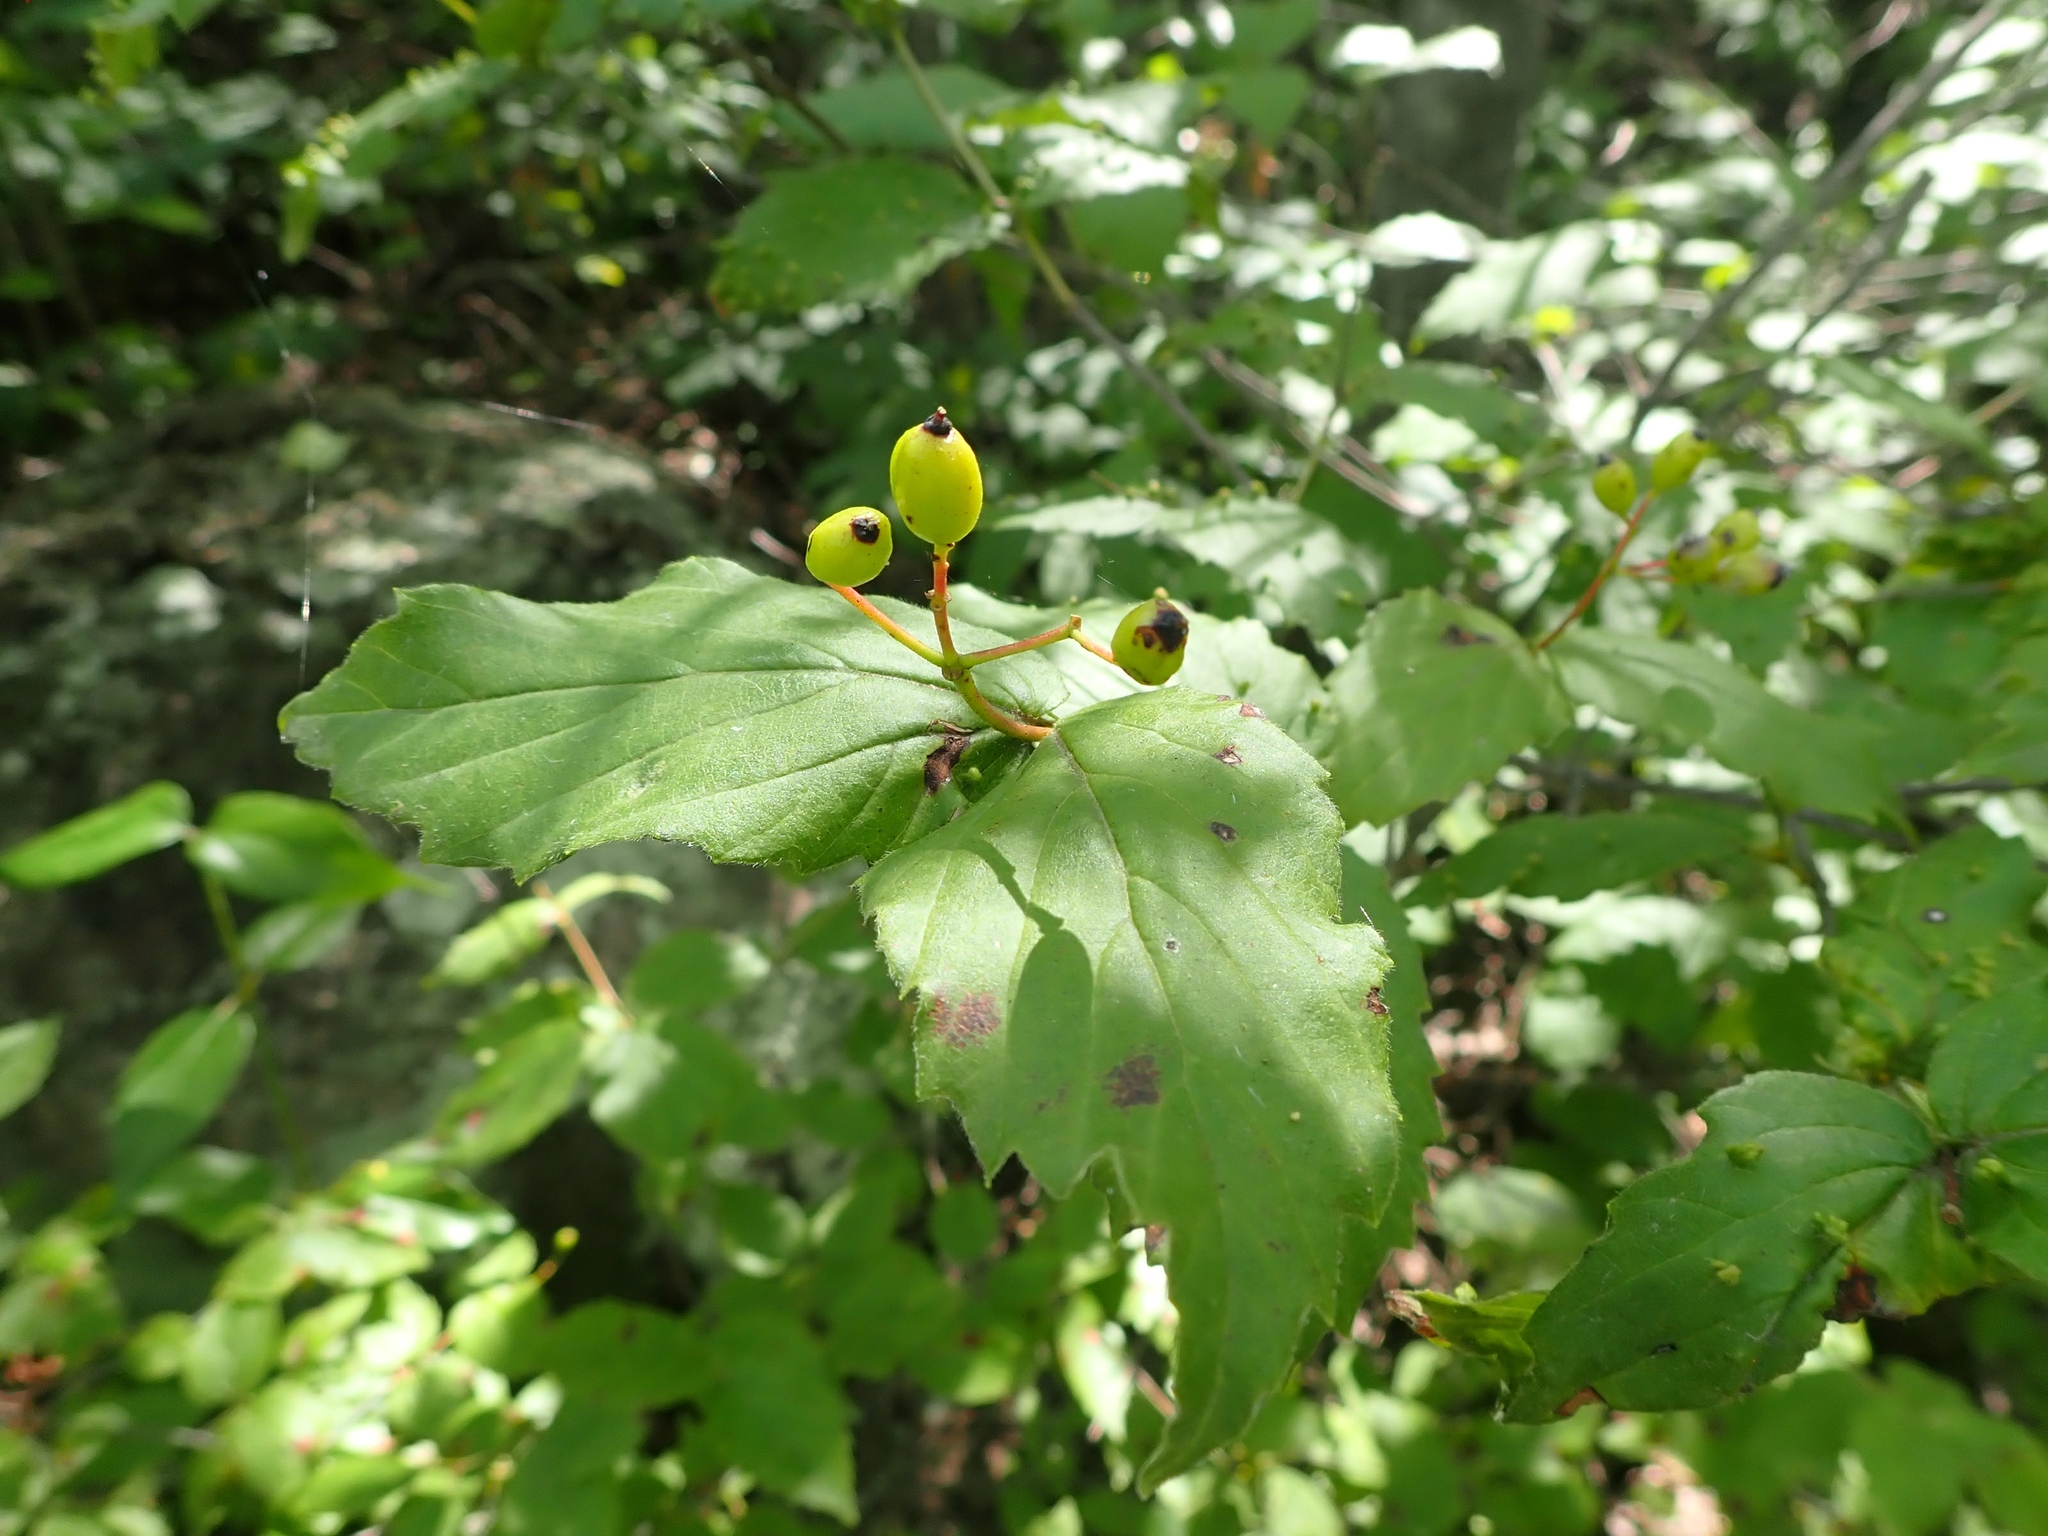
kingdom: Plantae
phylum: Tracheophyta
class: Magnoliopsida
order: Dipsacales
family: Viburnaceae
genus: Viburnum
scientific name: Viburnum rafinesqueanum
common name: Downy arrow-wood
